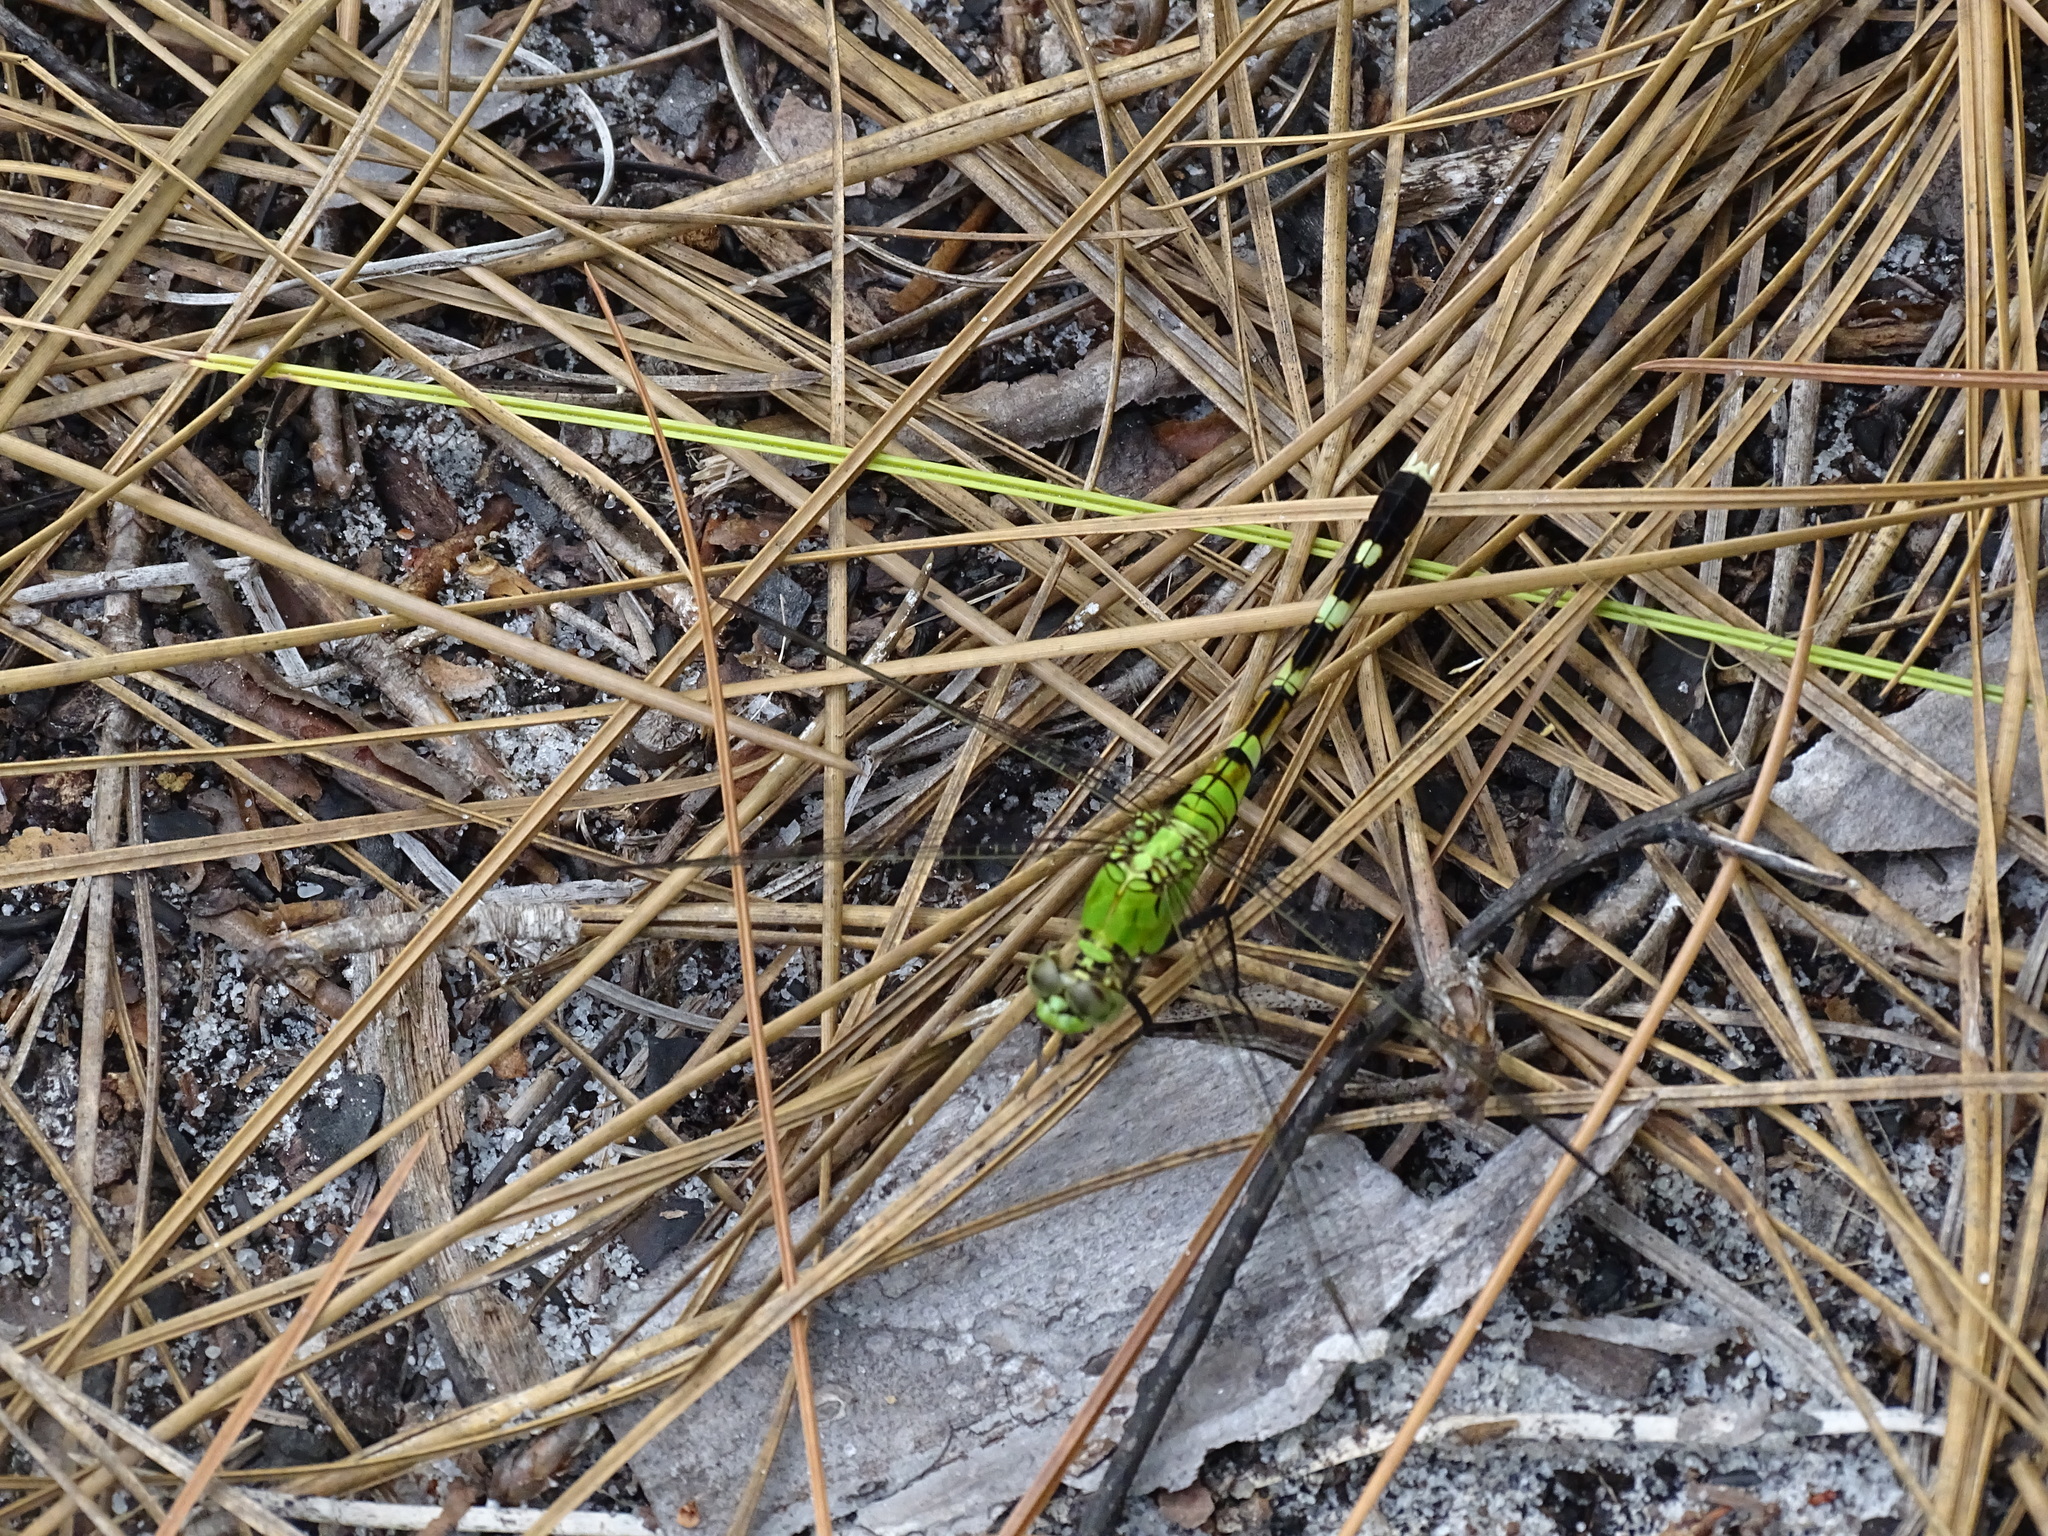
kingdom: Animalia
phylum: Arthropoda
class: Insecta
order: Odonata
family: Libellulidae
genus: Erythemis
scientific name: Erythemis simplicicollis
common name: Eastern pondhawk
